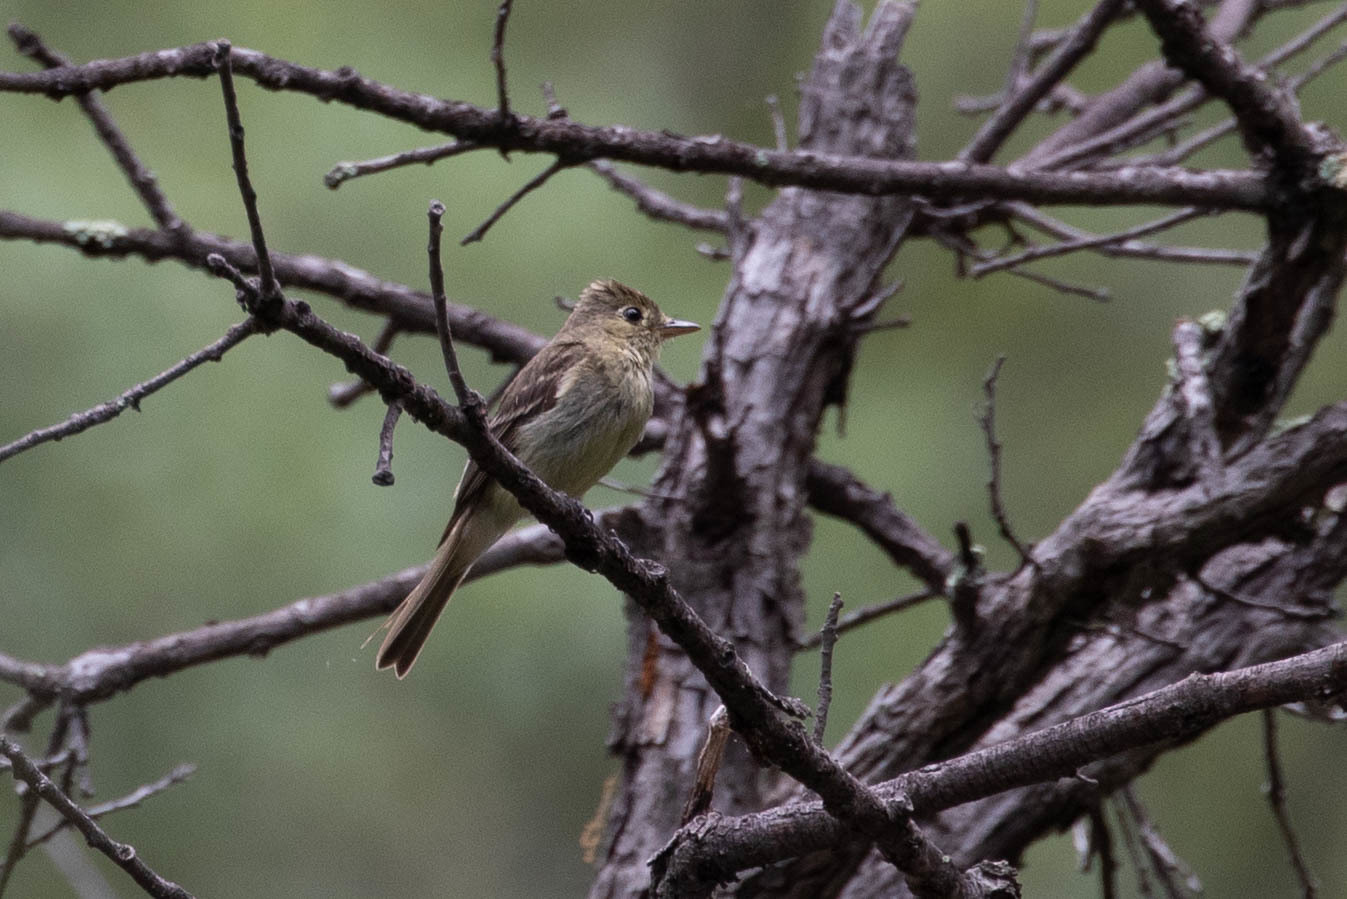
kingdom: Animalia
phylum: Chordata
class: Aves
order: Passeriformes
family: Tyrannidae
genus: Empidonax
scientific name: Empidonax difficilis
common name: Pacific-slope flycatcher
